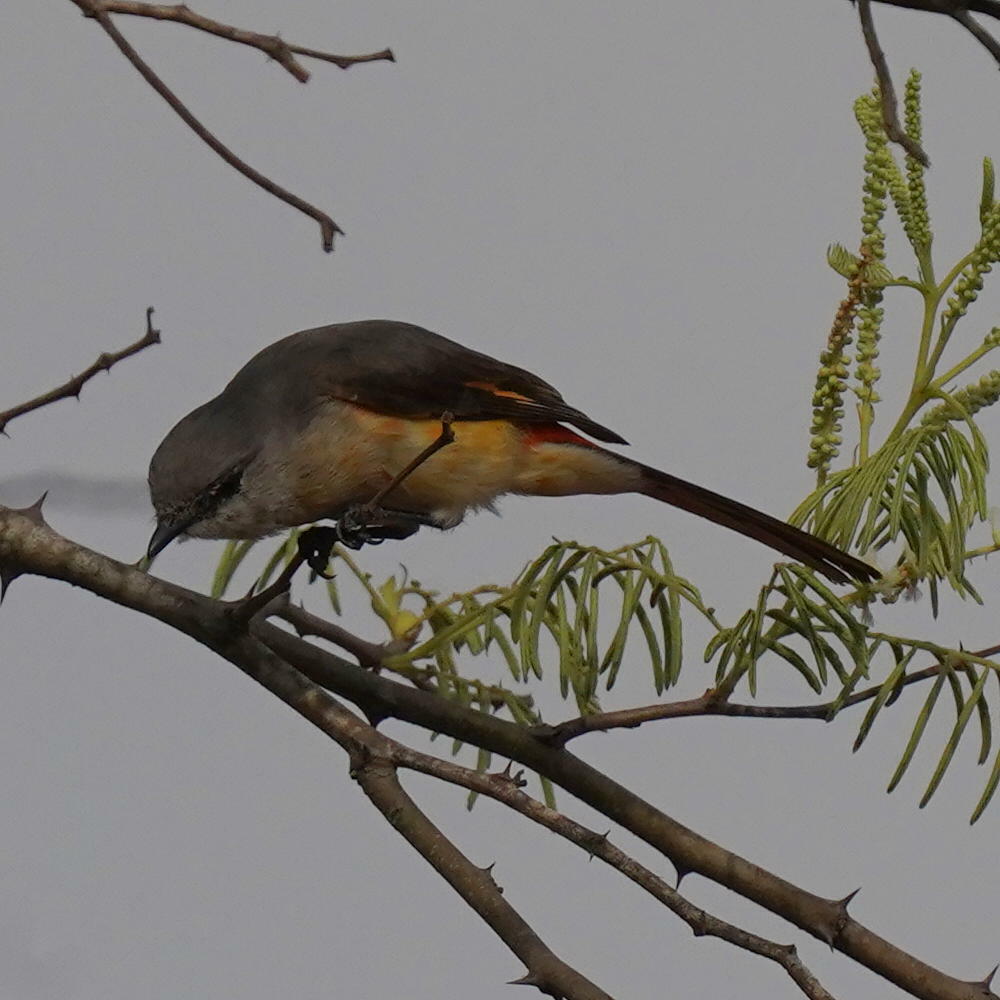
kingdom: Animalia
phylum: Chordata
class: Aves
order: Passeriformes
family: Campephagidae
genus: Pericrocotus
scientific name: Pericrocotus cinnamomeus
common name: Small minivet
